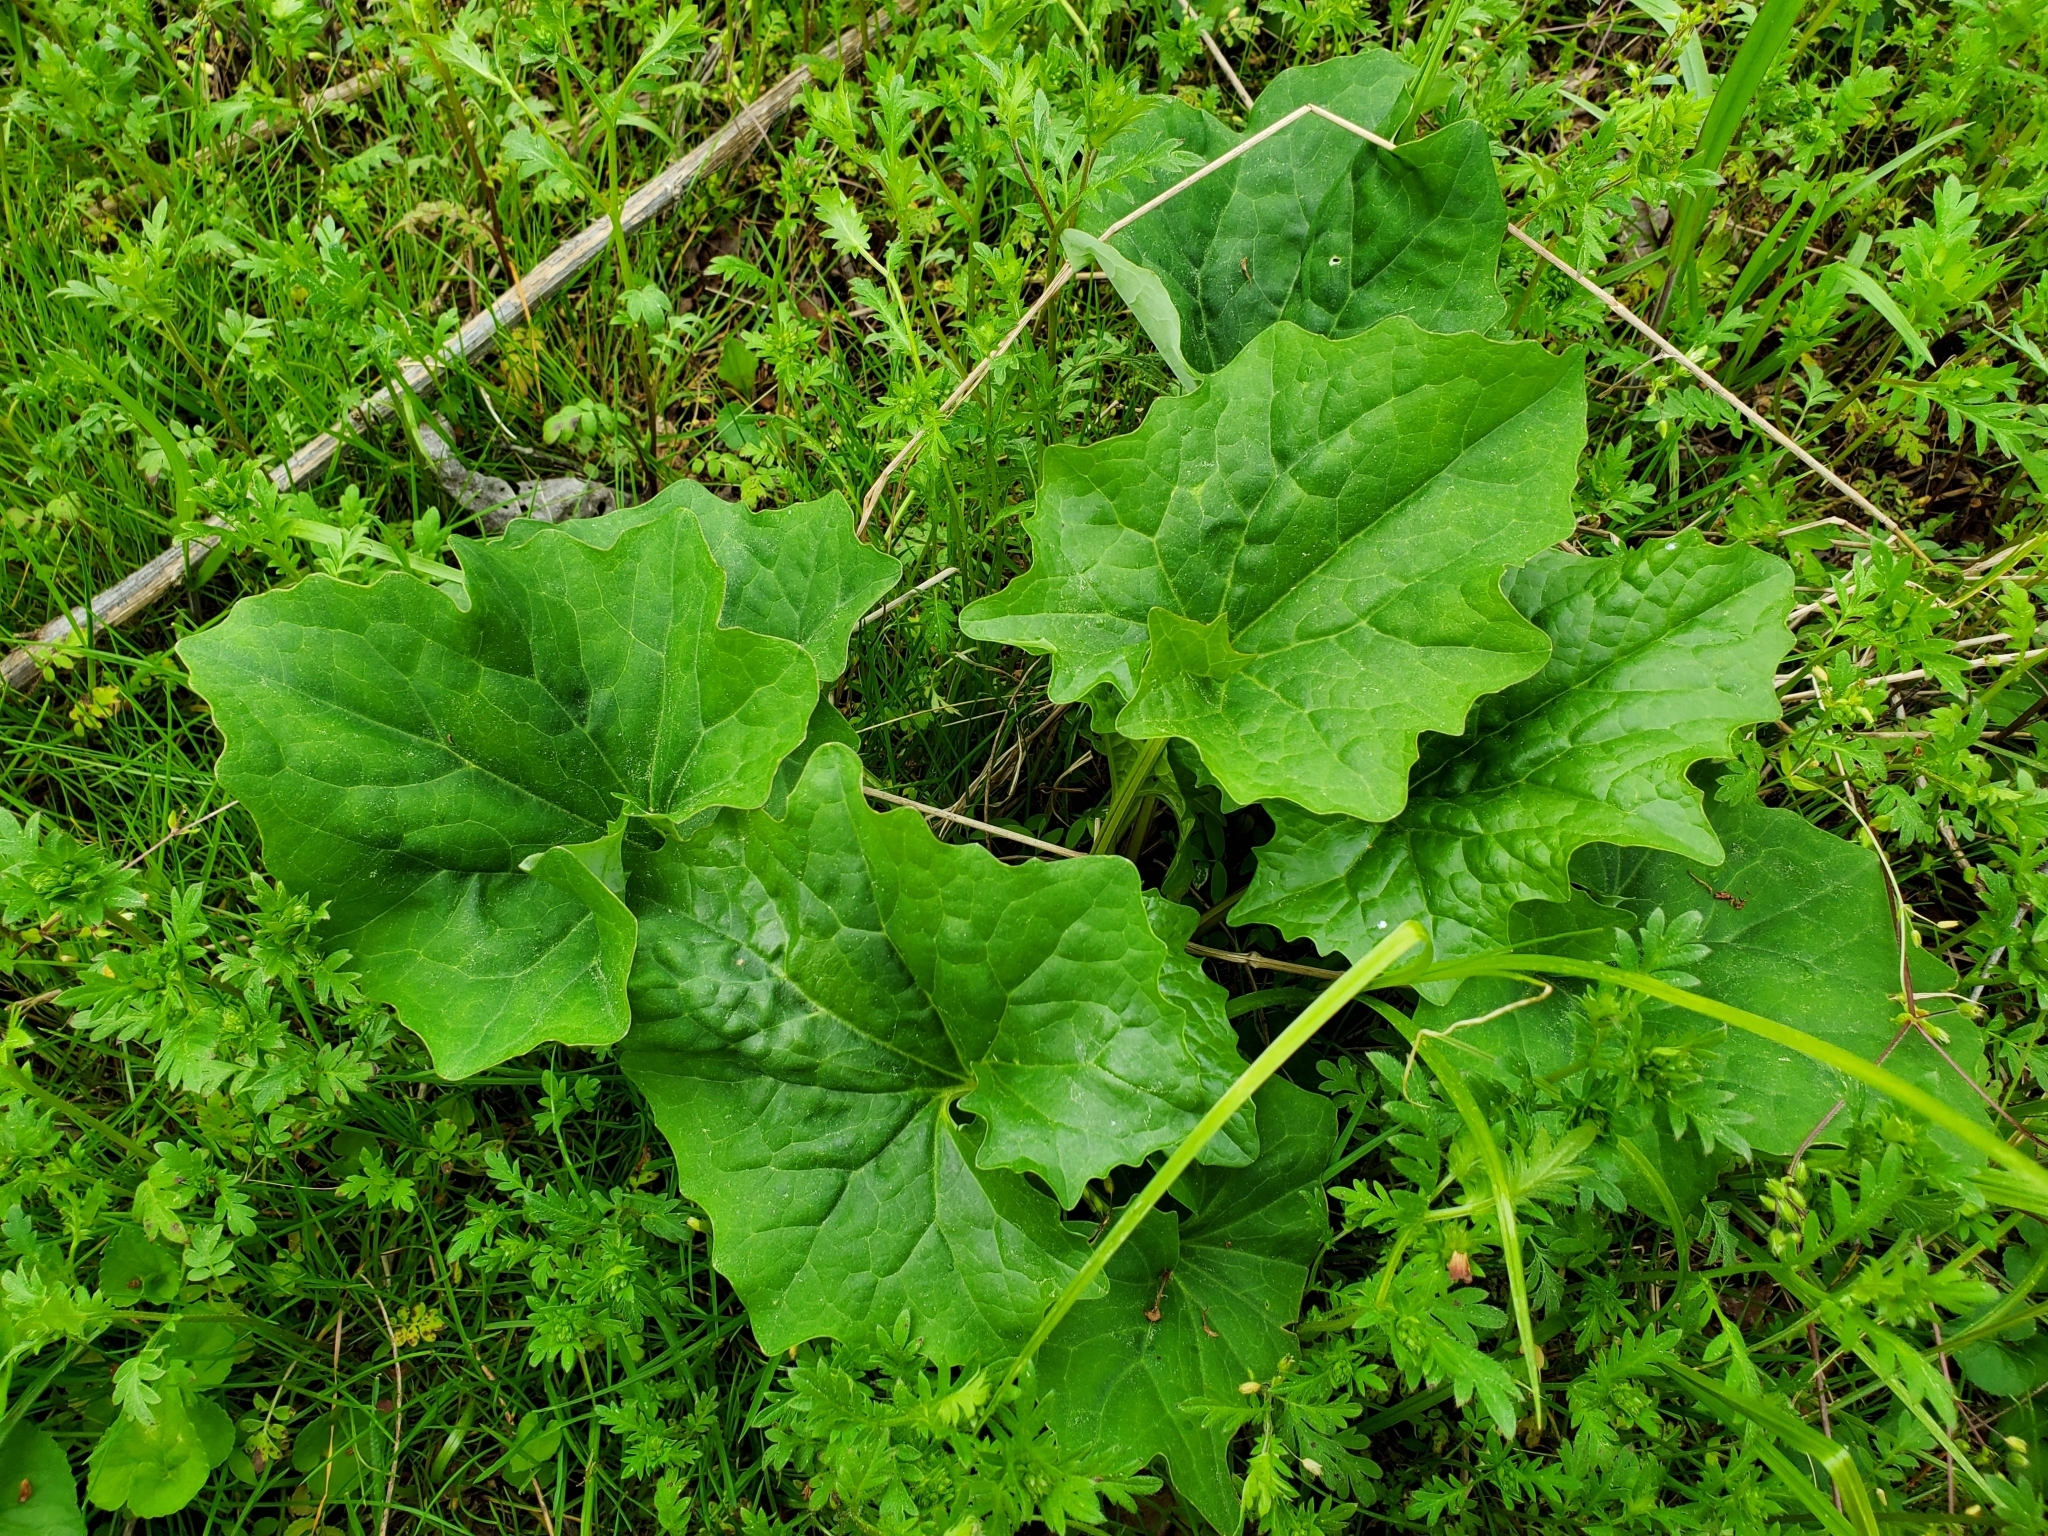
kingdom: Plantae
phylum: Tracheophyta
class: Magnoliopsida
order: Asterales
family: Asteraceae
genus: Arnoglossum
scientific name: Arnoglossum atriplicifolium
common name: Pale indian-plantain
